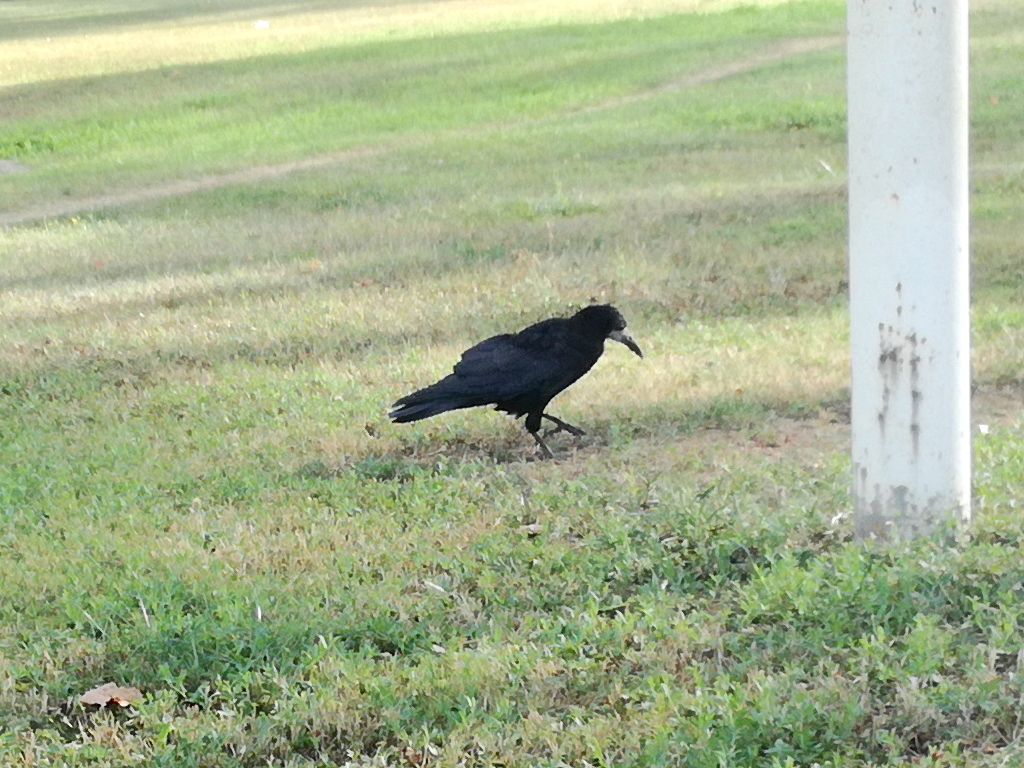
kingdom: Animalia
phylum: Chordata
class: Aves
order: Passeriformes
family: Corvidae
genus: Corvus
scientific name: Corvus frugilegus
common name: Rook
